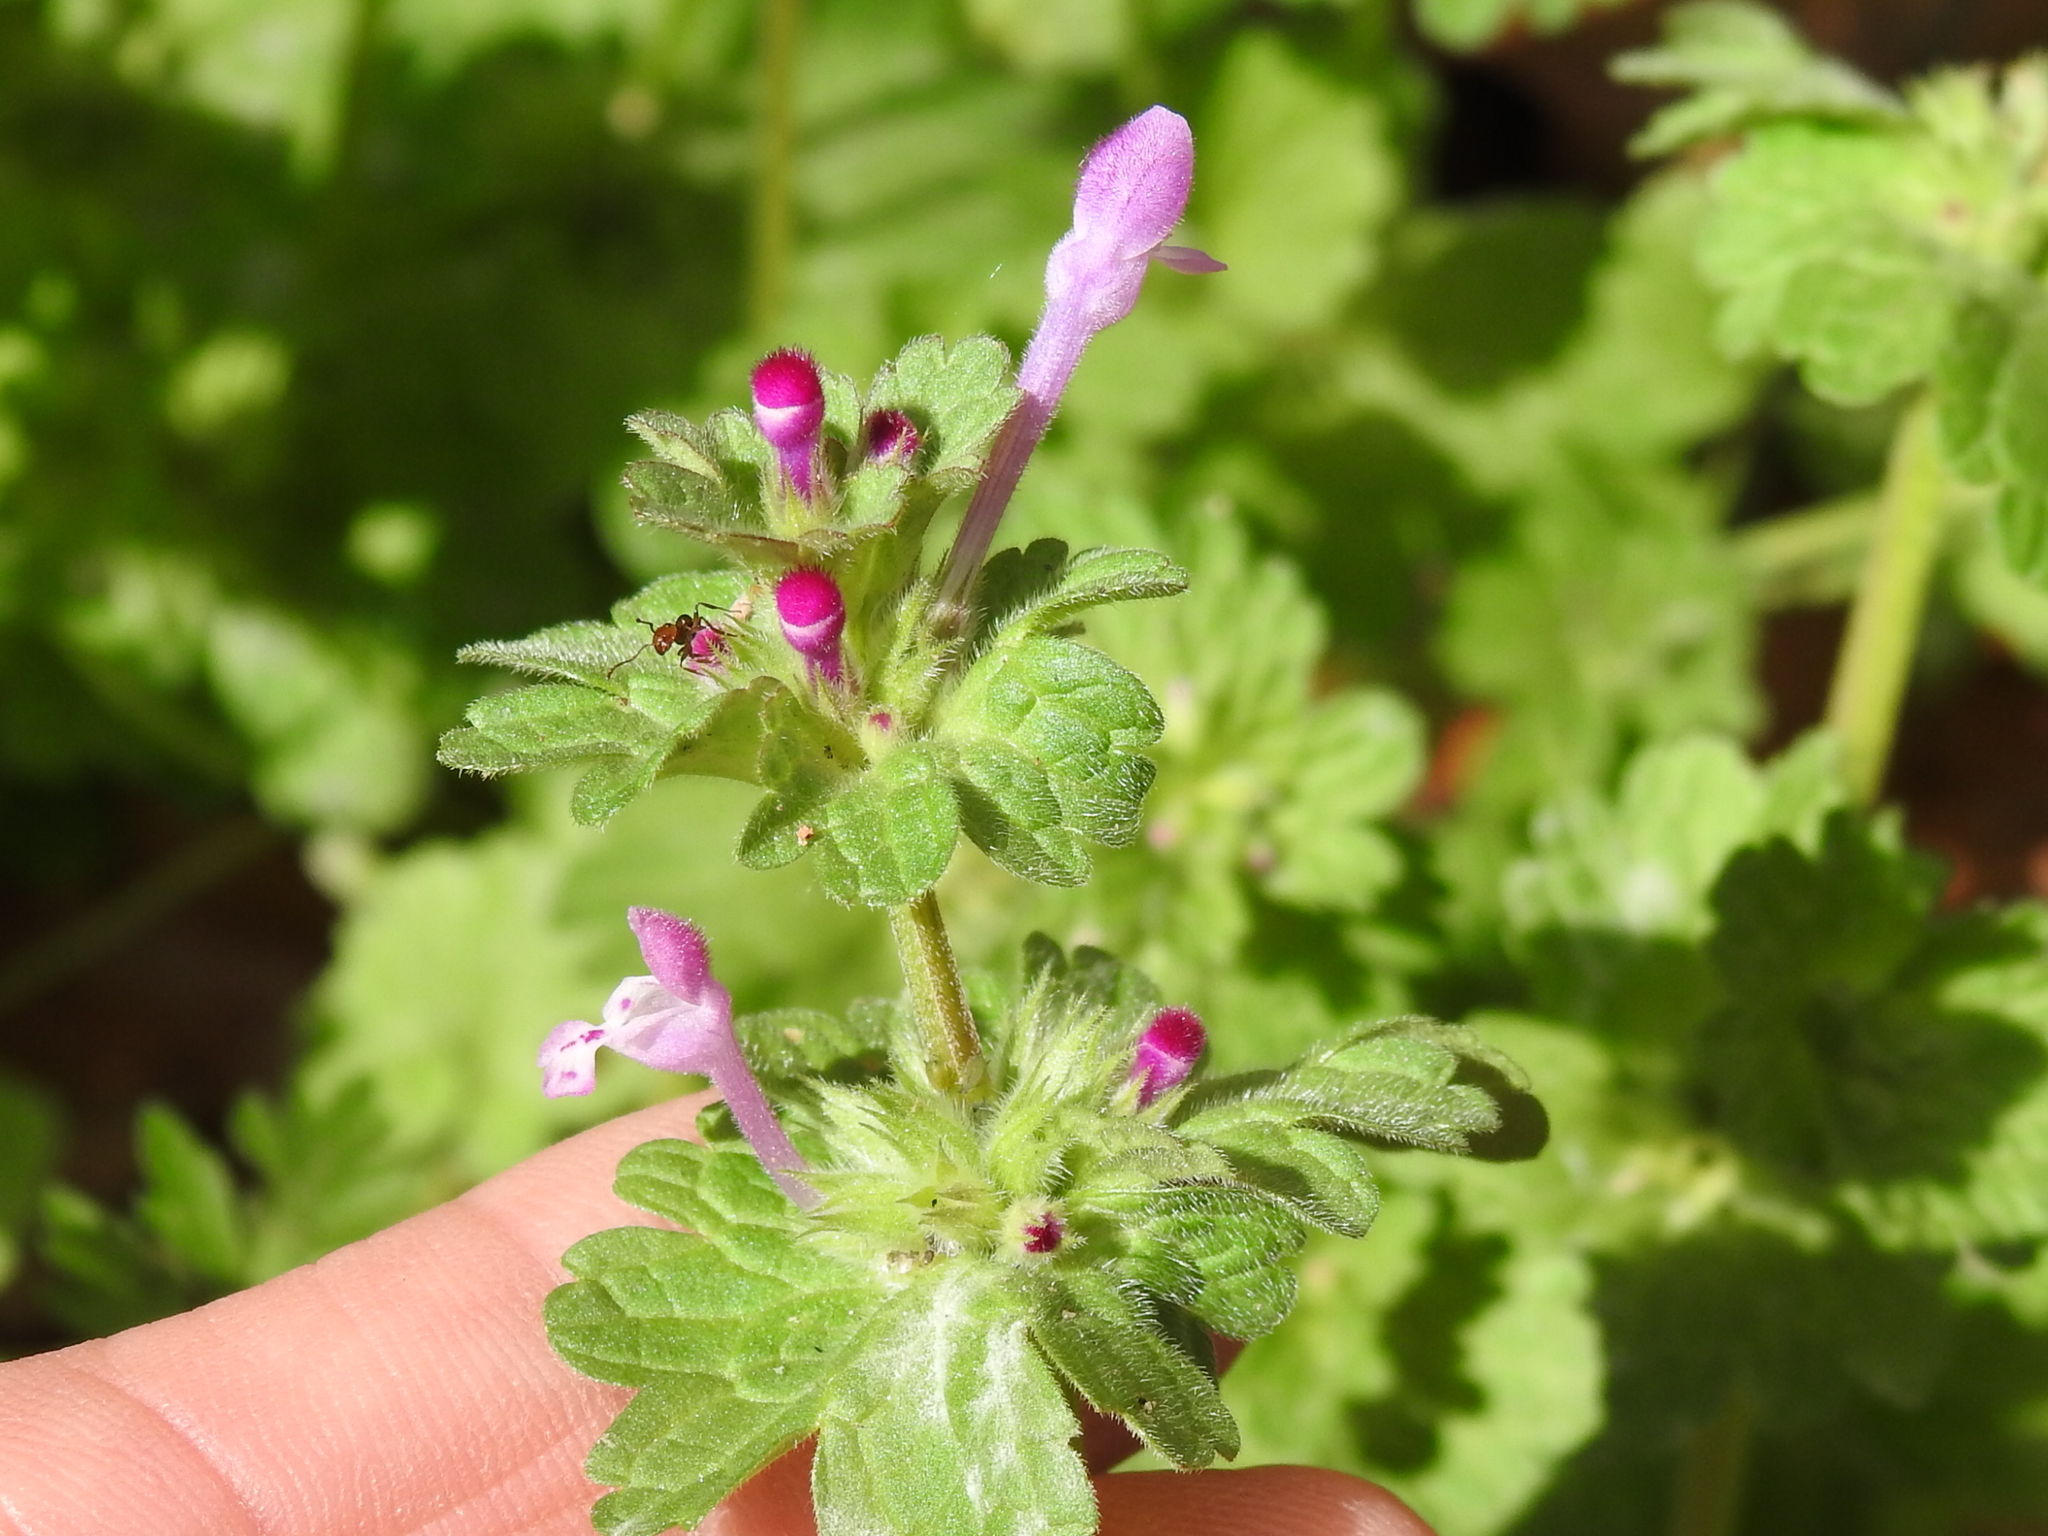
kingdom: Plantae
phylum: Tracheophyta
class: Magnoliopsida
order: Lamiales
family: Lamiaceae
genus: Lamium
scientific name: Lamium amplexicaule
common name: Henbit dead-nettle
